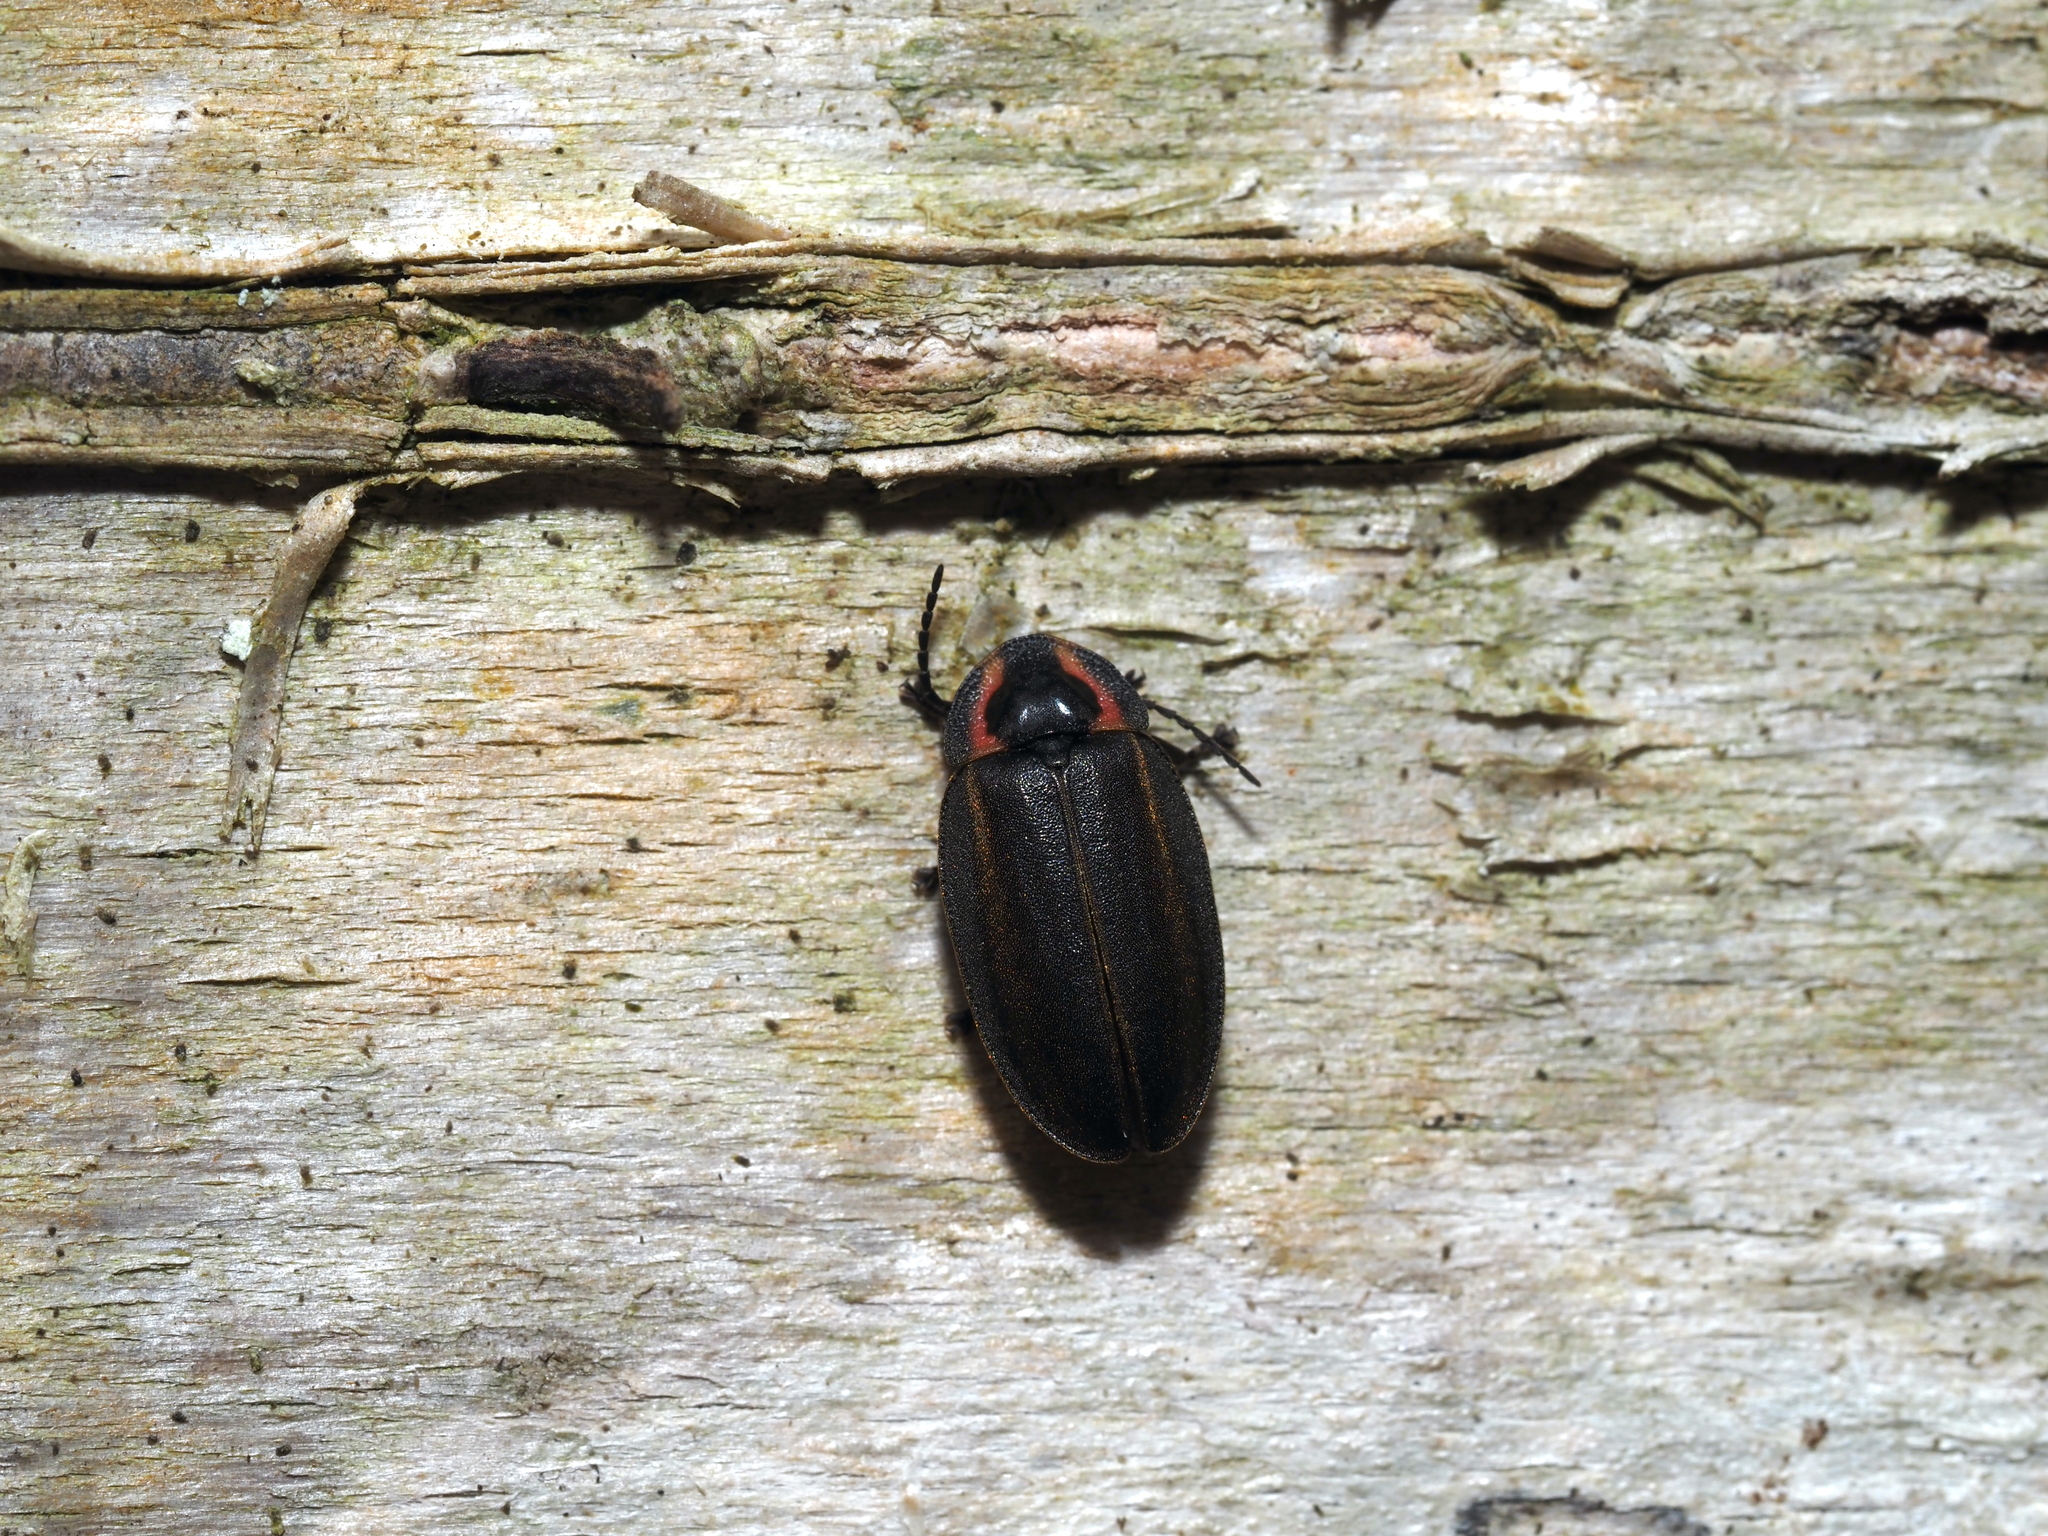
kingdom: Animalia
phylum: Arthropoda
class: Insecta
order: Coleoptera
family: Lampyridae
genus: Photinus
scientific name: Photinus corrusca
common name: Winter firefly
